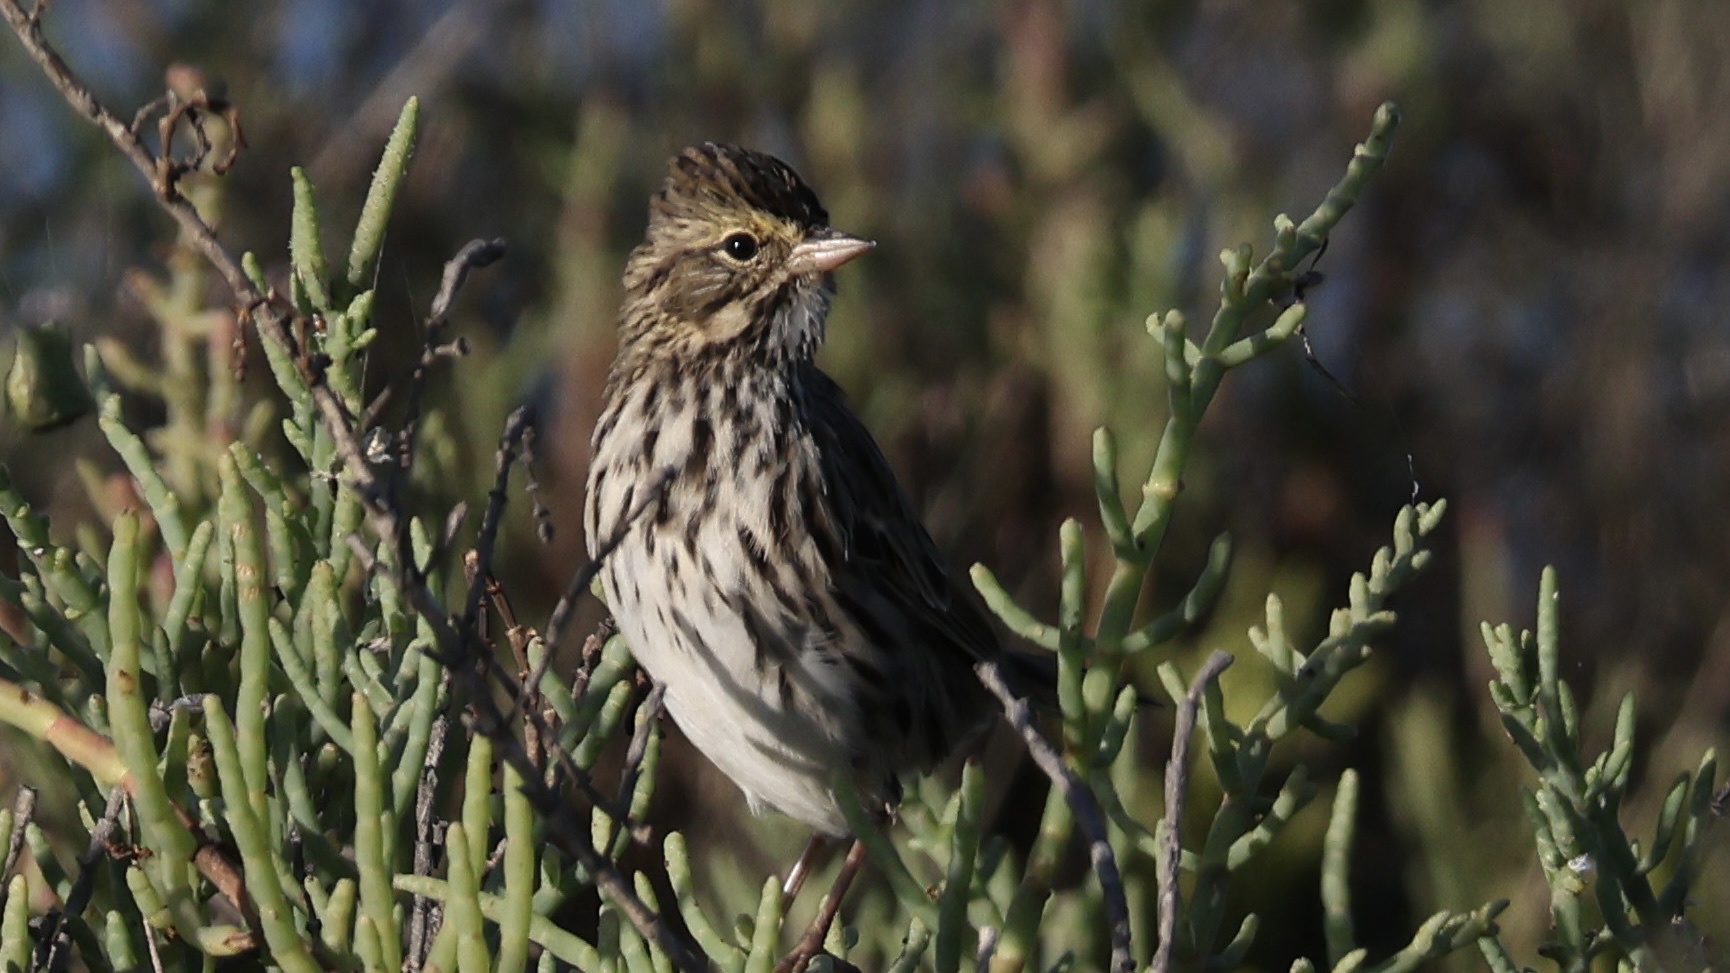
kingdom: Animalia
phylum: Chordata
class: Aves
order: Passeriformes
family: Passerellidae
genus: Passerculus
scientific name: Passerculus sandwichensis
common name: Savannah sparrow
